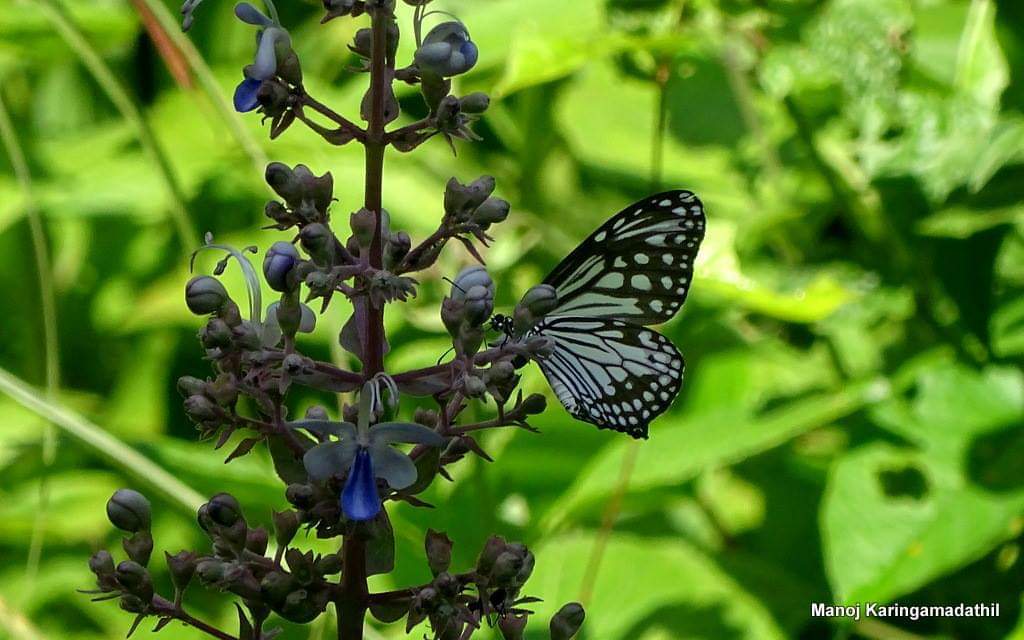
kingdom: Animalia
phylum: Arthropoda
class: Insecta
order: Lepidoptera
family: Nymphalidae
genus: Parantica
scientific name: Parantica aglea
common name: Glassy tiger
